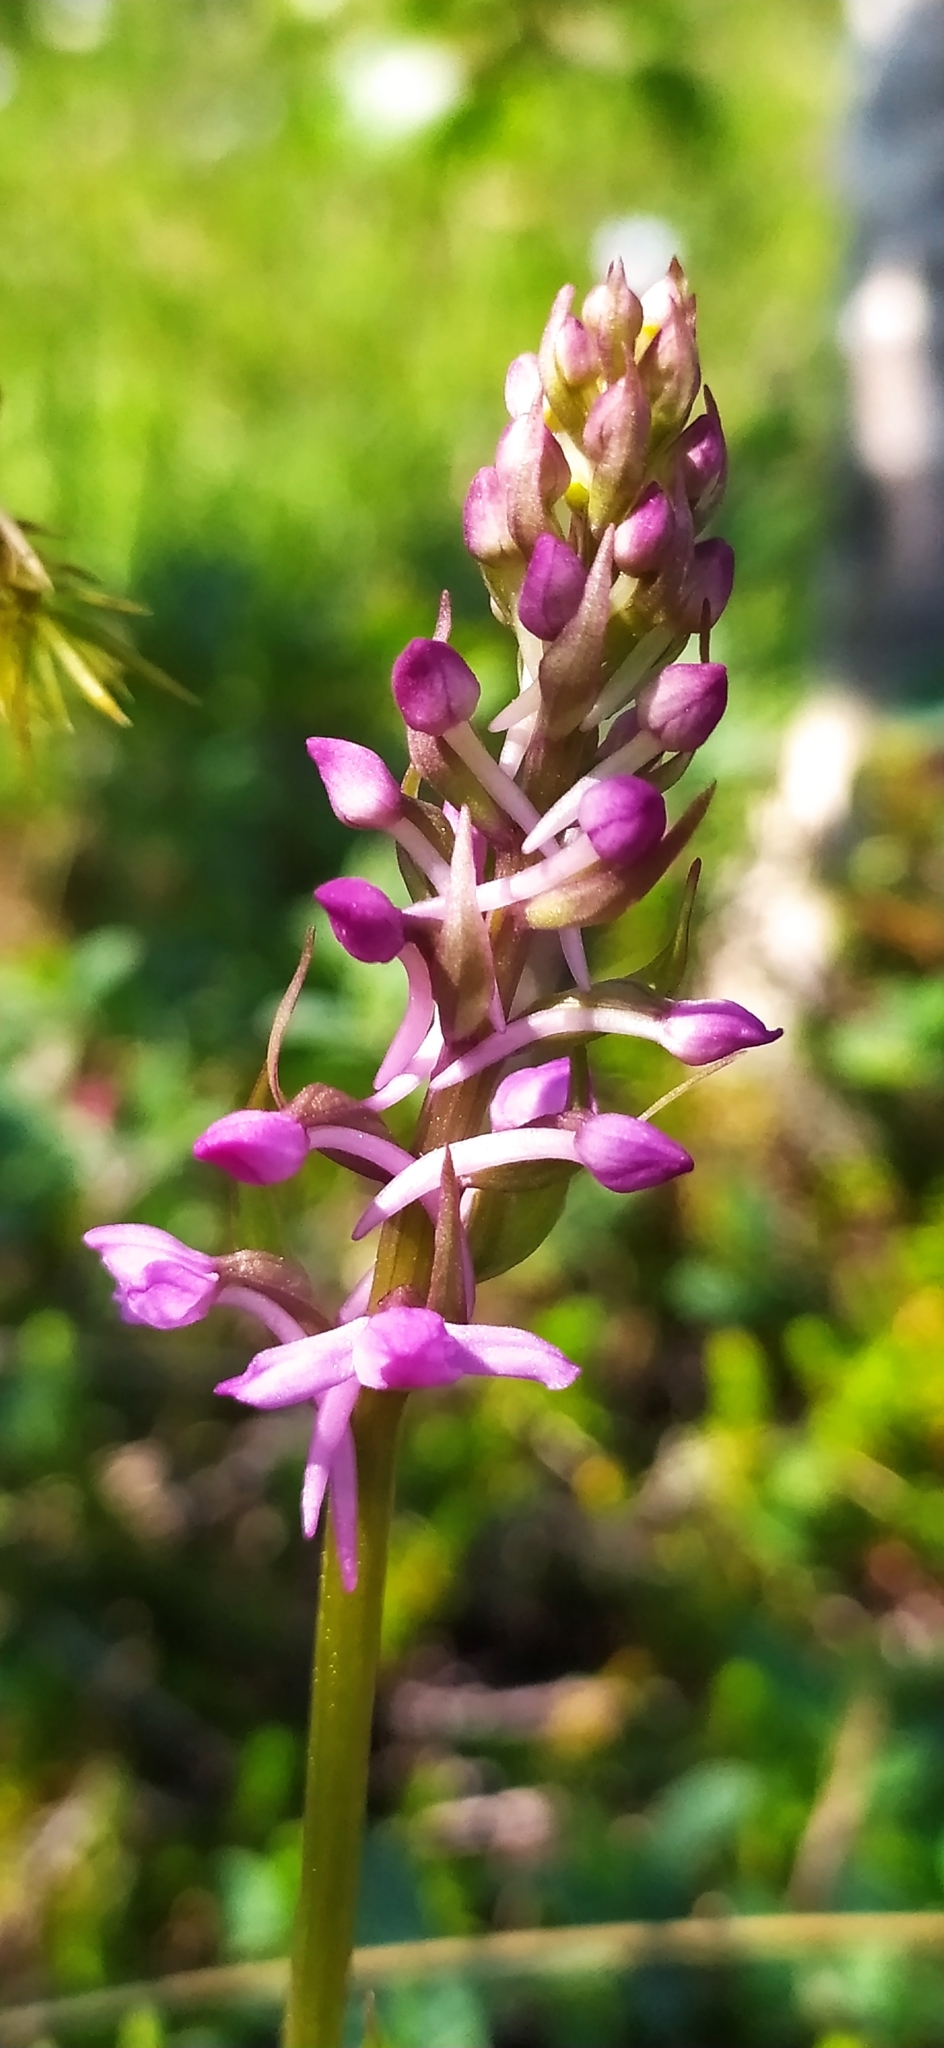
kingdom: Plantae
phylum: Tracheophyta
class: Liliopsida
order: Asparagales
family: Orchidaceae
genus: Gymnadenia
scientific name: Gymnadenia conopsea
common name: Fragrant orchid
